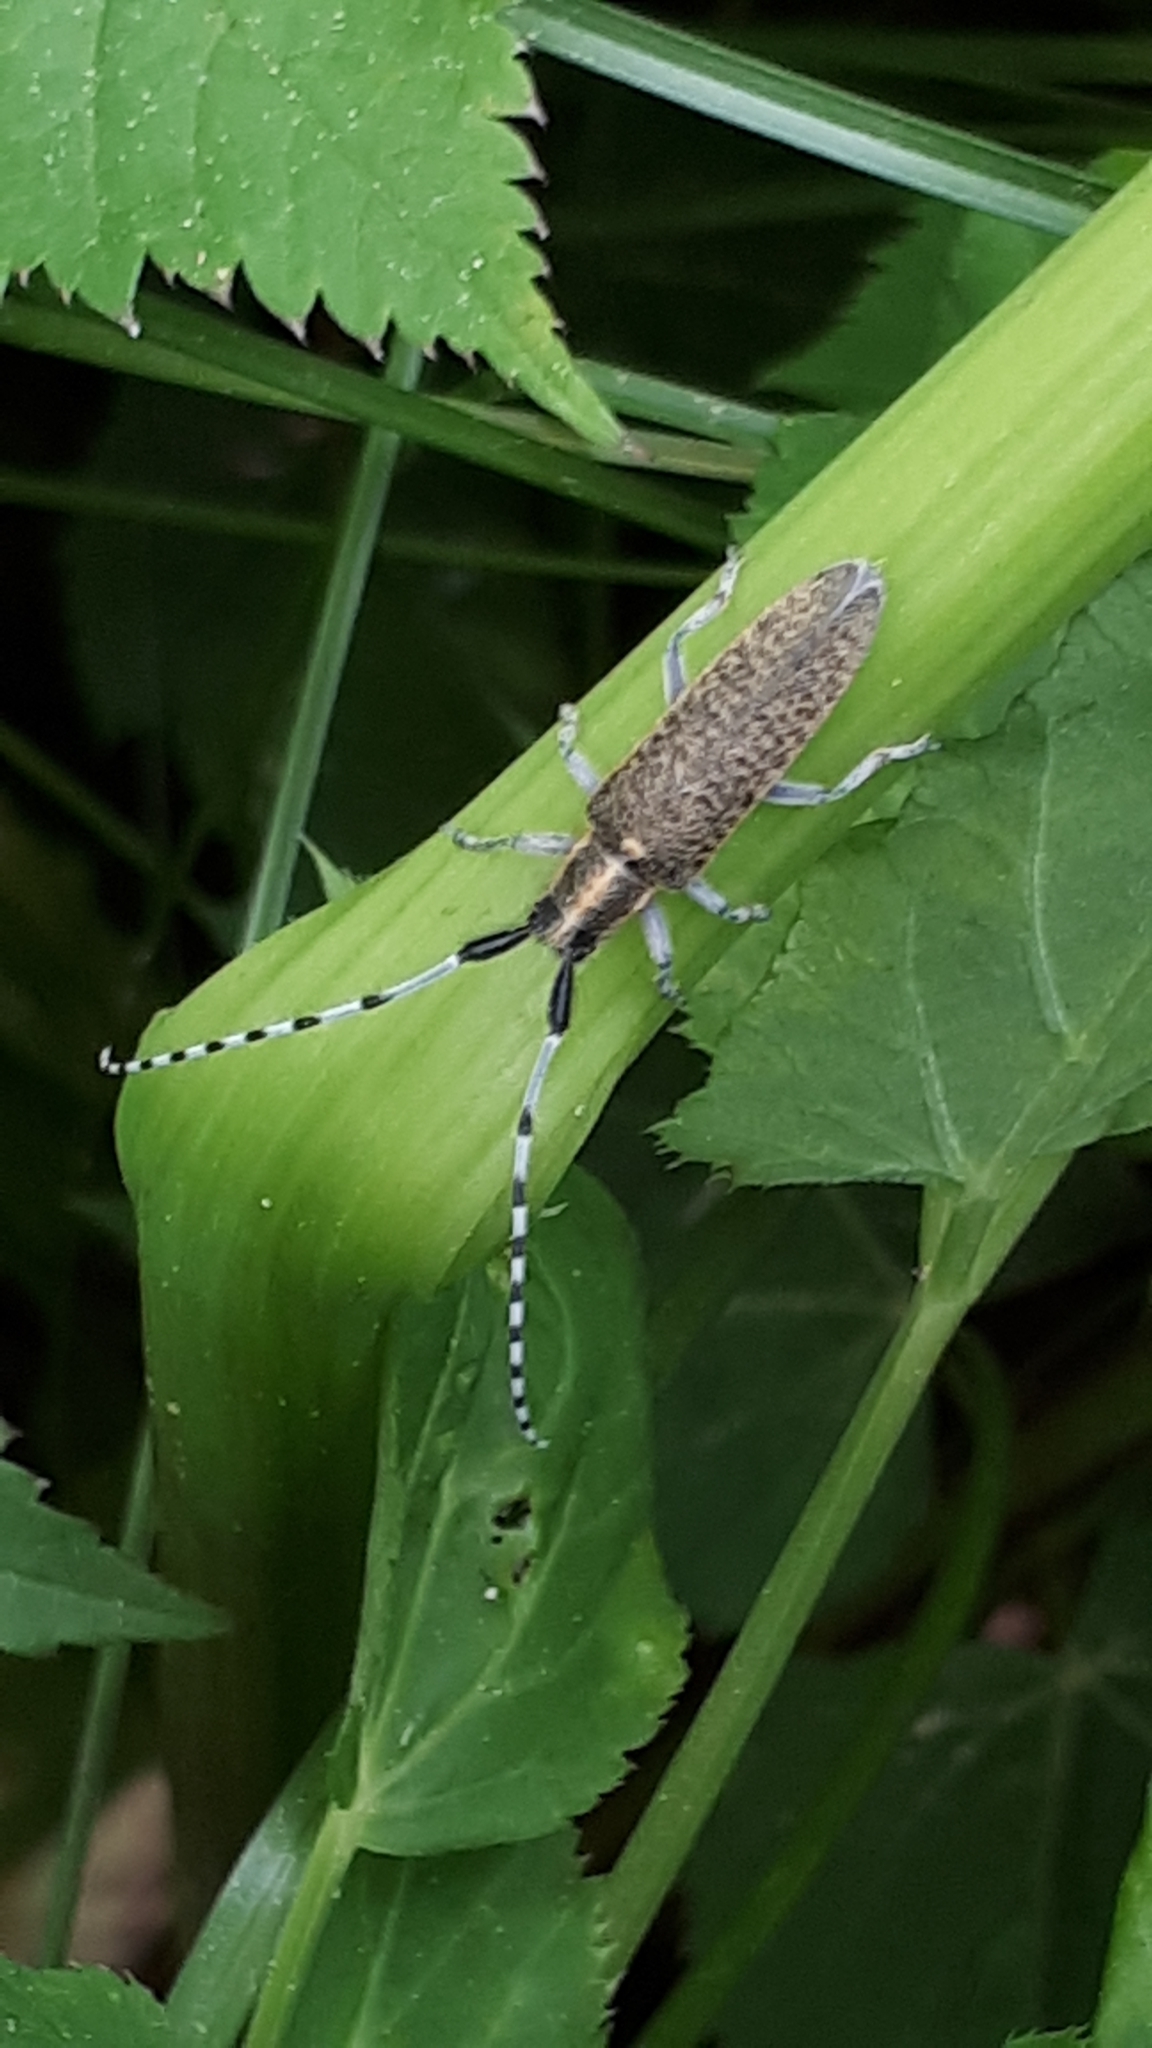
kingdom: Animalia
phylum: Arthropoda
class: Insecta
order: Coleoptera
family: Cerambycidae
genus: Agapanthia
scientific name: Agapanthia villosoviridescens
